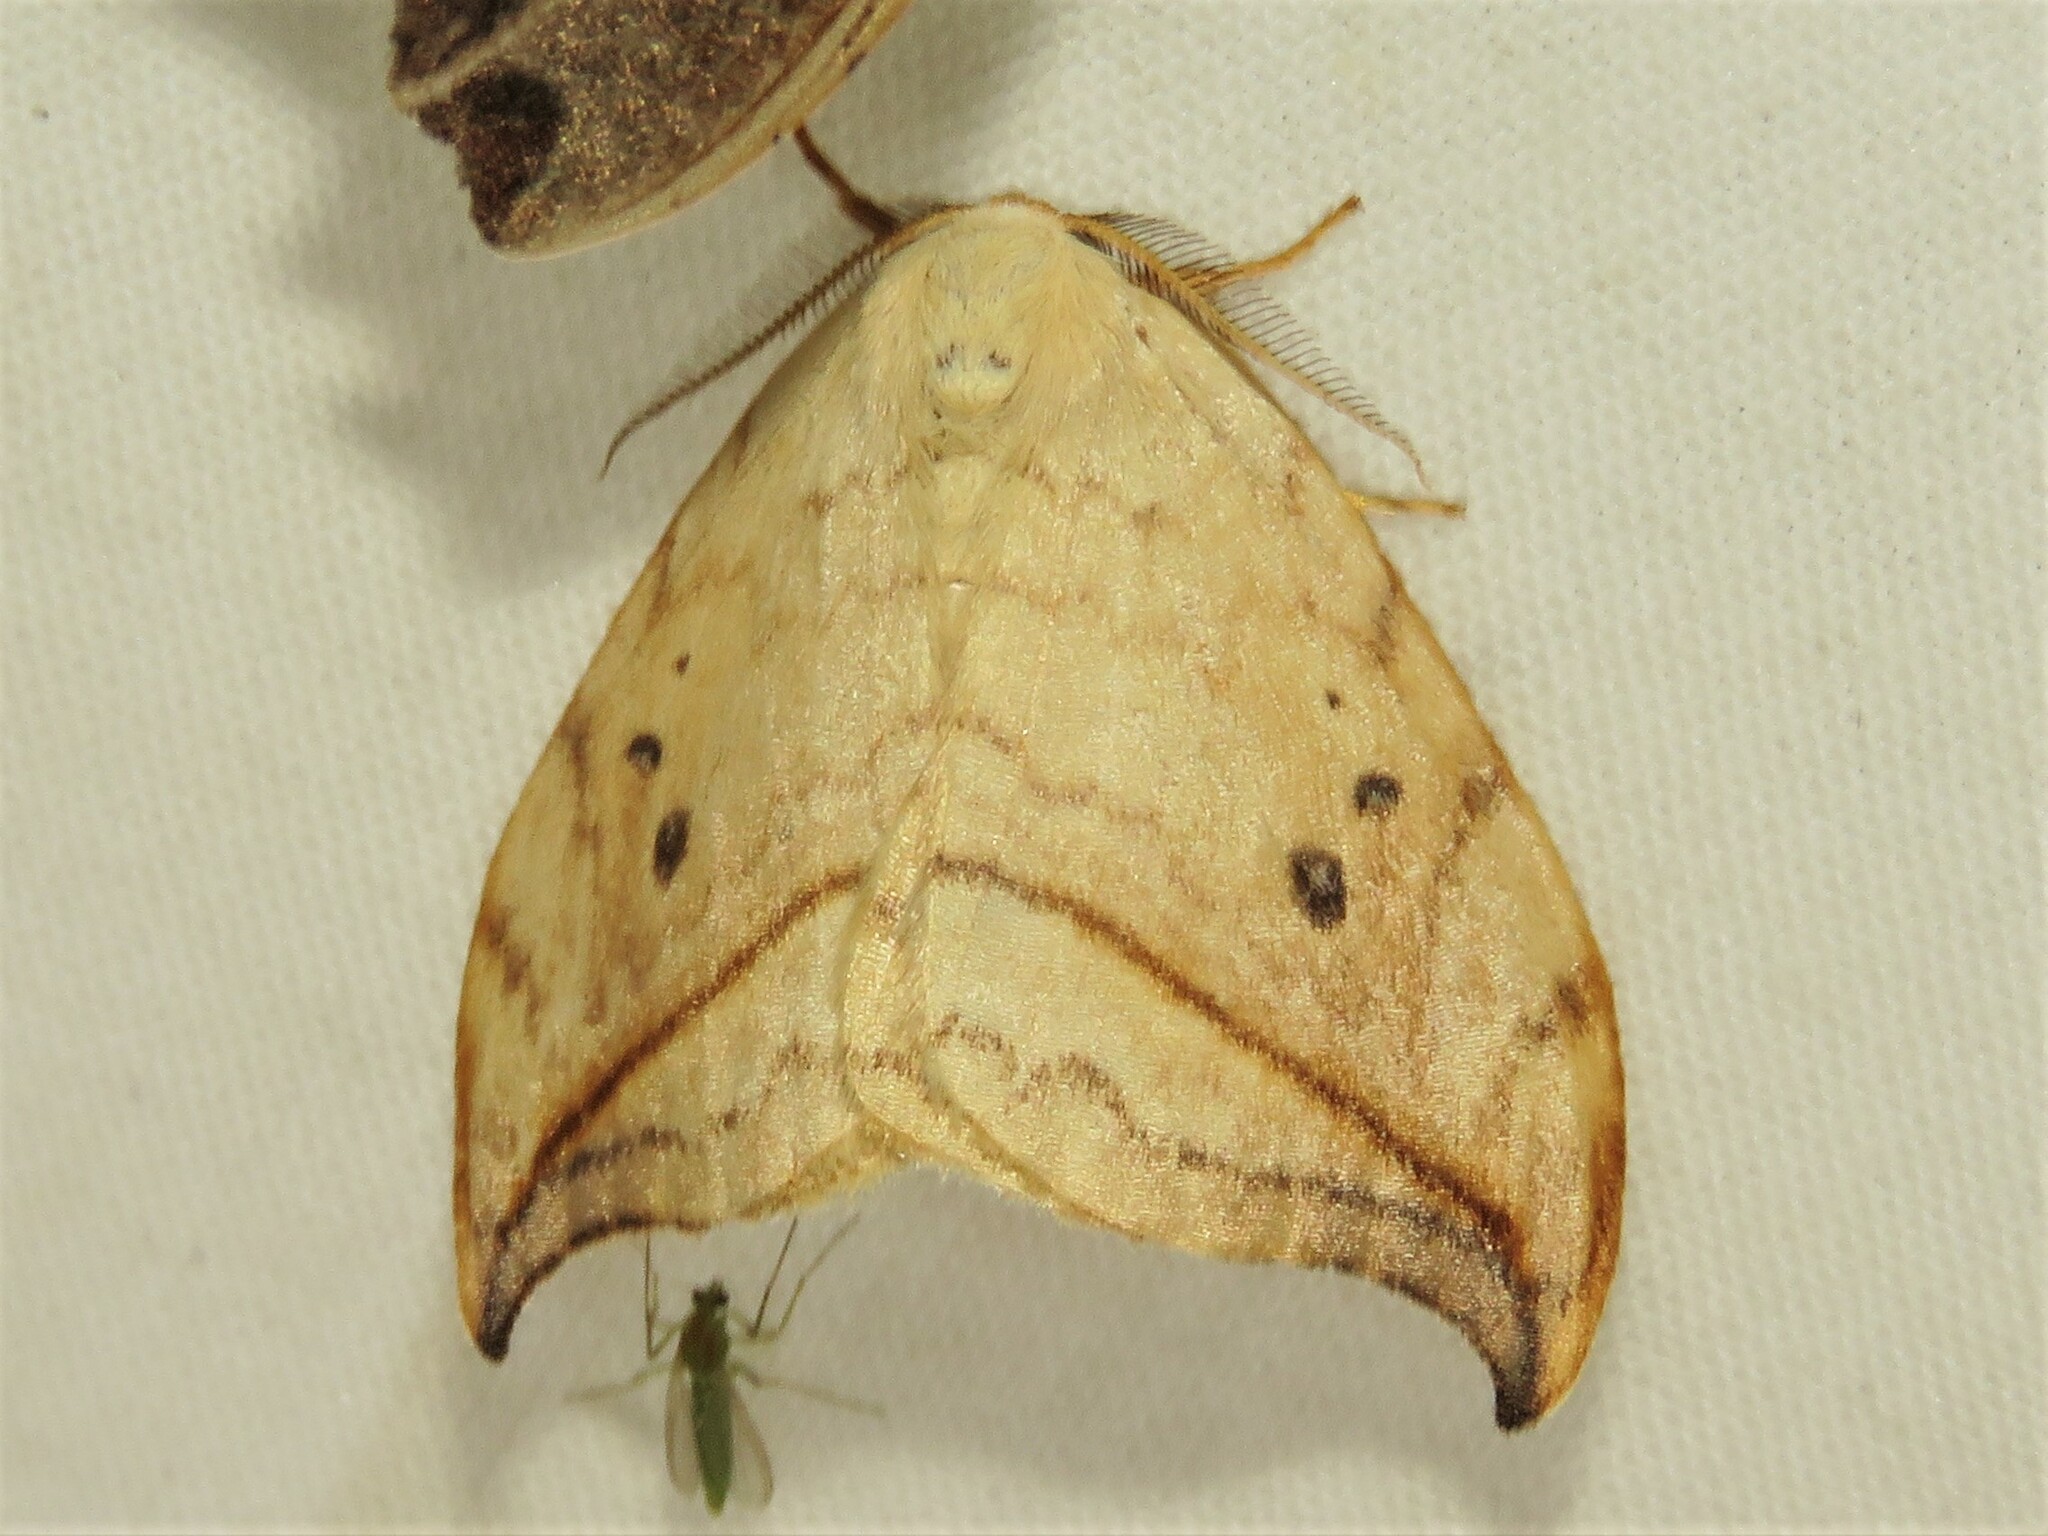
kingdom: Animalia
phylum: Arthropoda
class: Insecta
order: Lepidoptera
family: Drepanidae
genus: Drepana
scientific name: Drepana arcuata
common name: Arched hooktip moth
